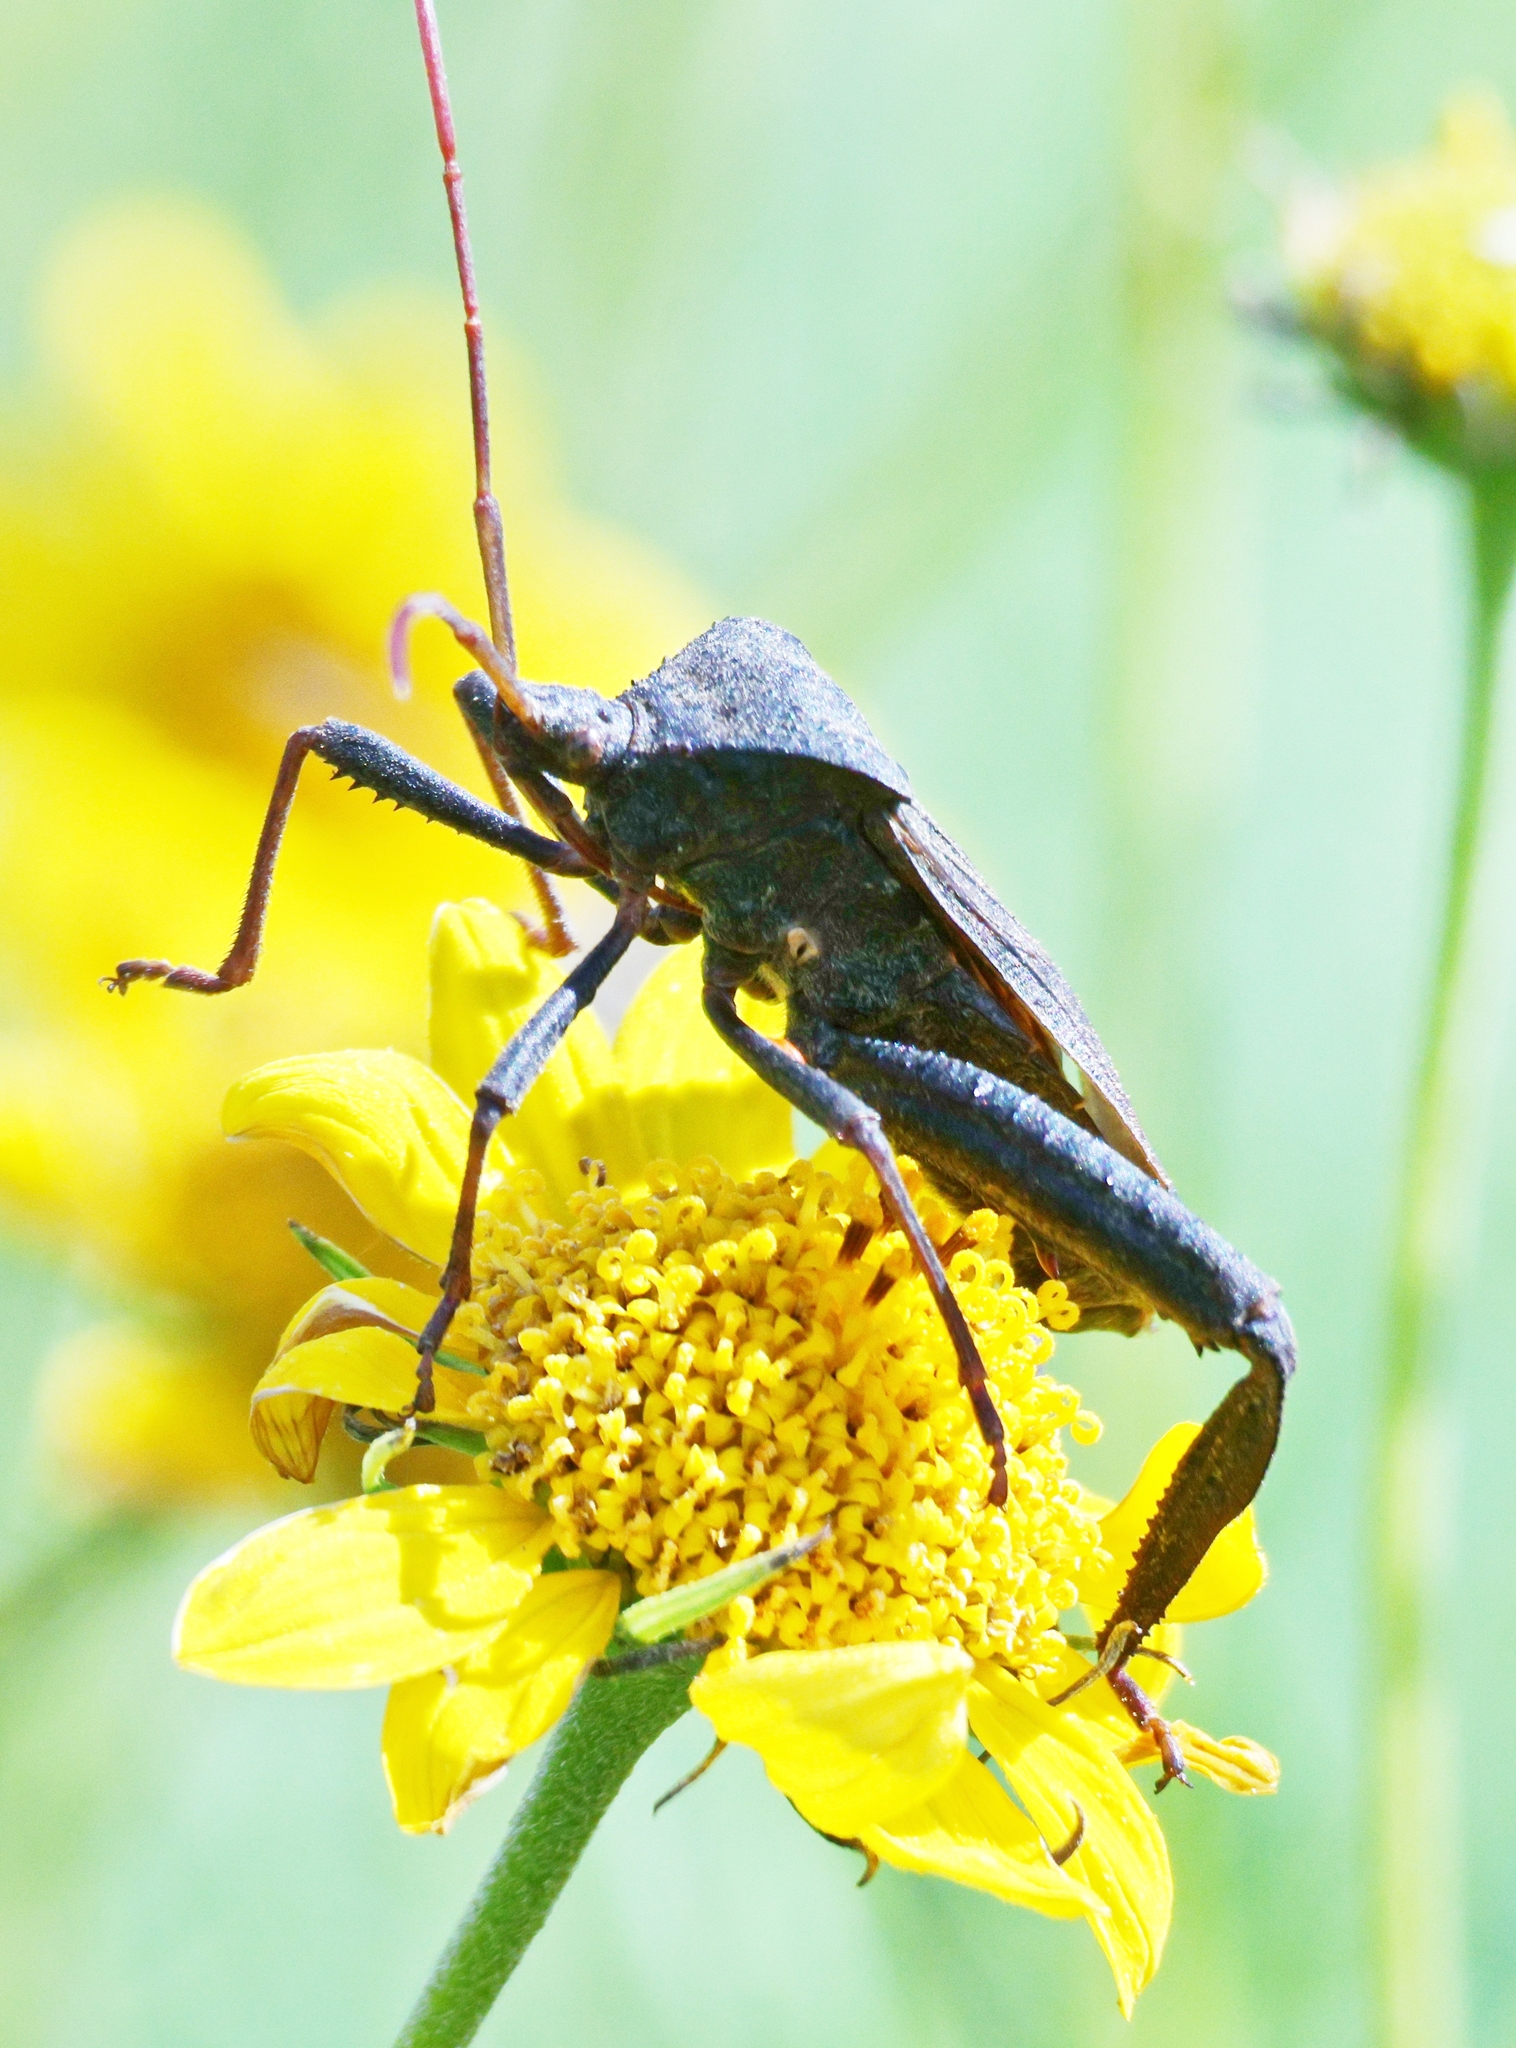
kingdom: Animalia
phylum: Arthropoda
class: Insecta
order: Hemiptera
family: Coreidae
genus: Acanthocephala
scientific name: Acanthocephala femorata
